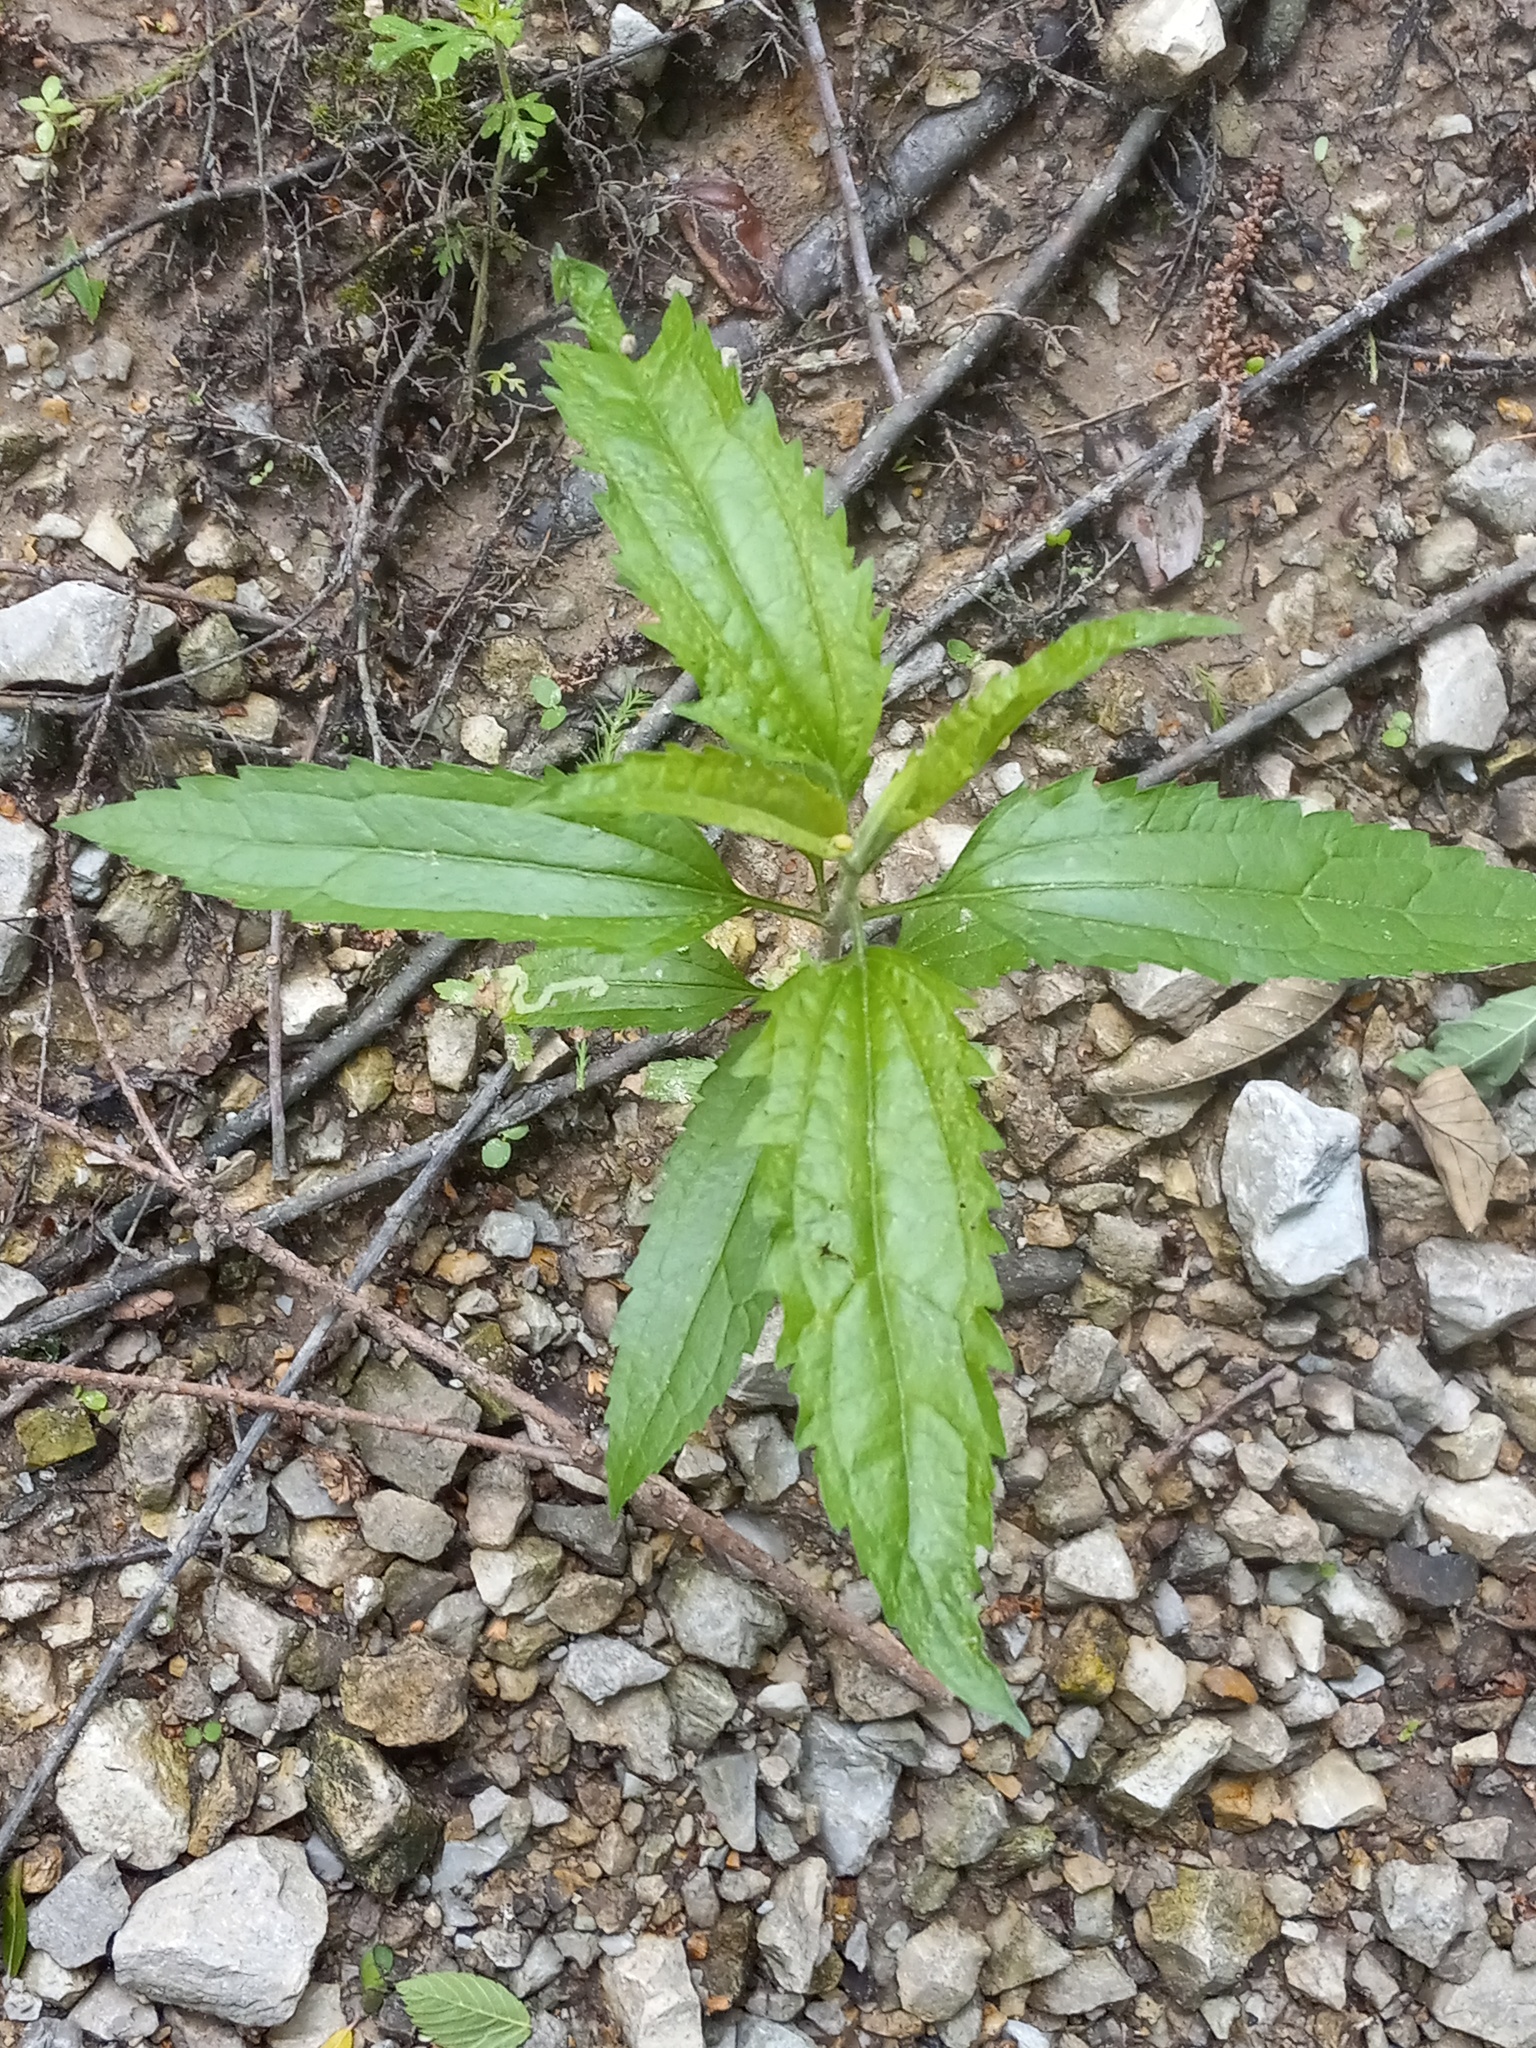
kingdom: Plantae
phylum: Tracheophyta
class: Magnoliopsida
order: Asterales
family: Asteraceae
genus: Eupatorium
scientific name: Eupatorium serotinum
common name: Late boneset
